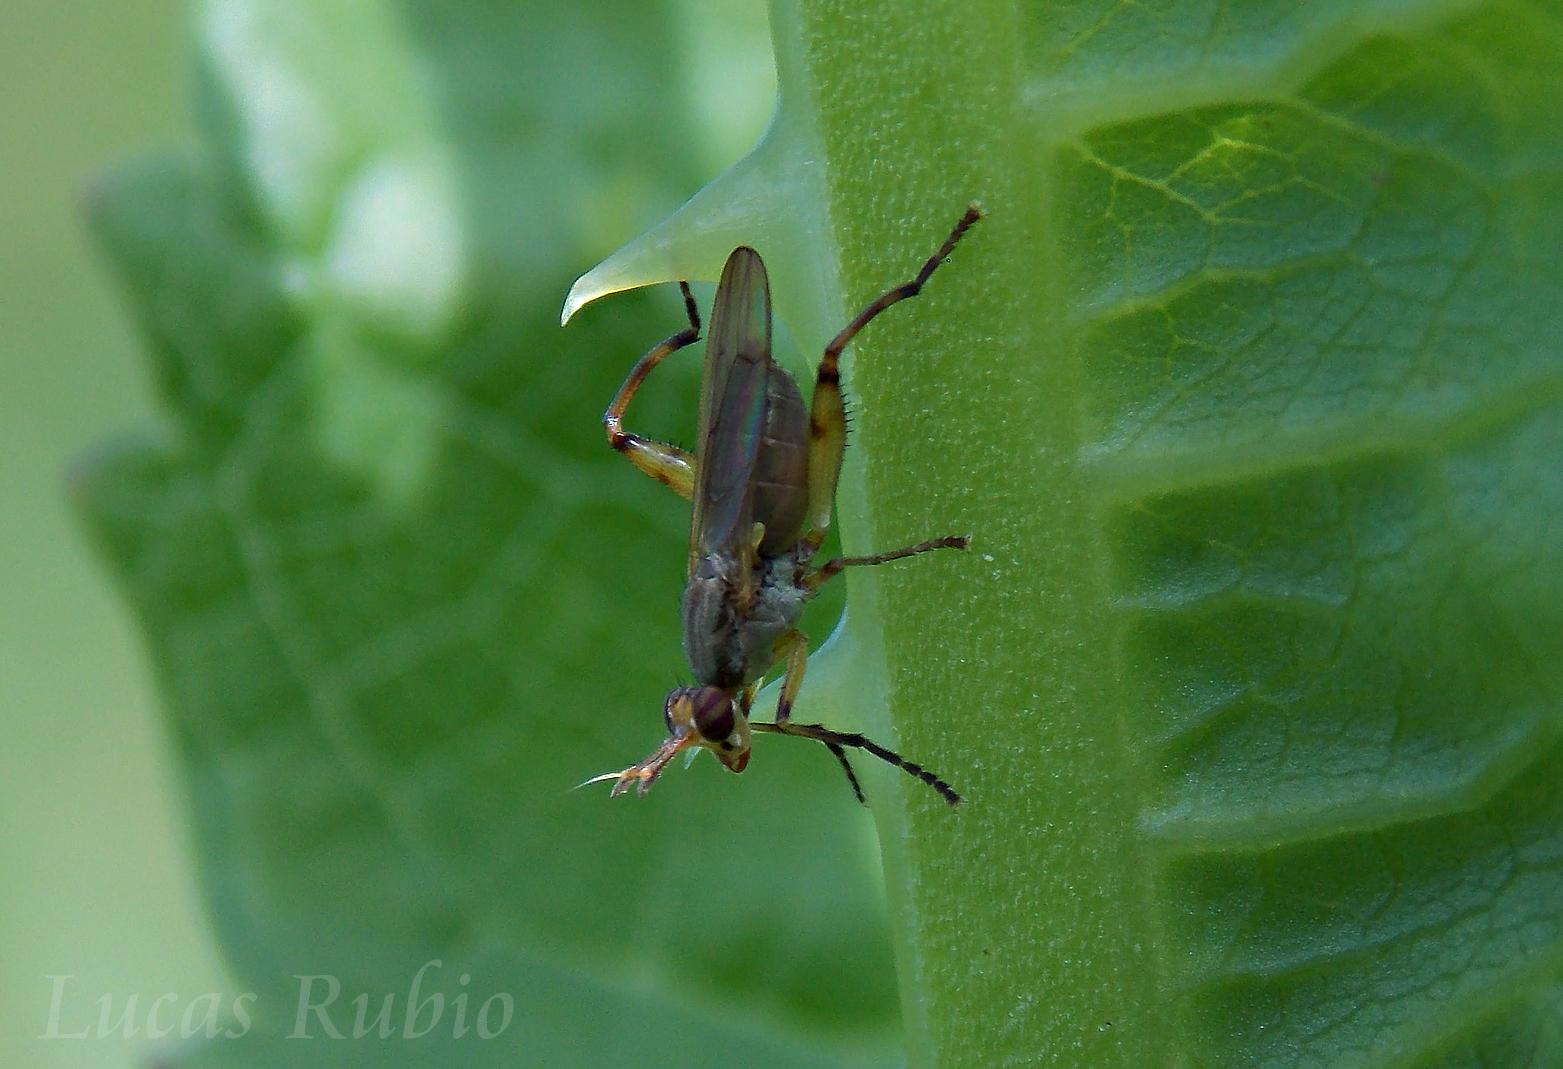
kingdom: Animalia
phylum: Arthropoda
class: Insecta
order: Diptera
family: Sciomyzidae
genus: Sepedonea
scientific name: Sepedonea
